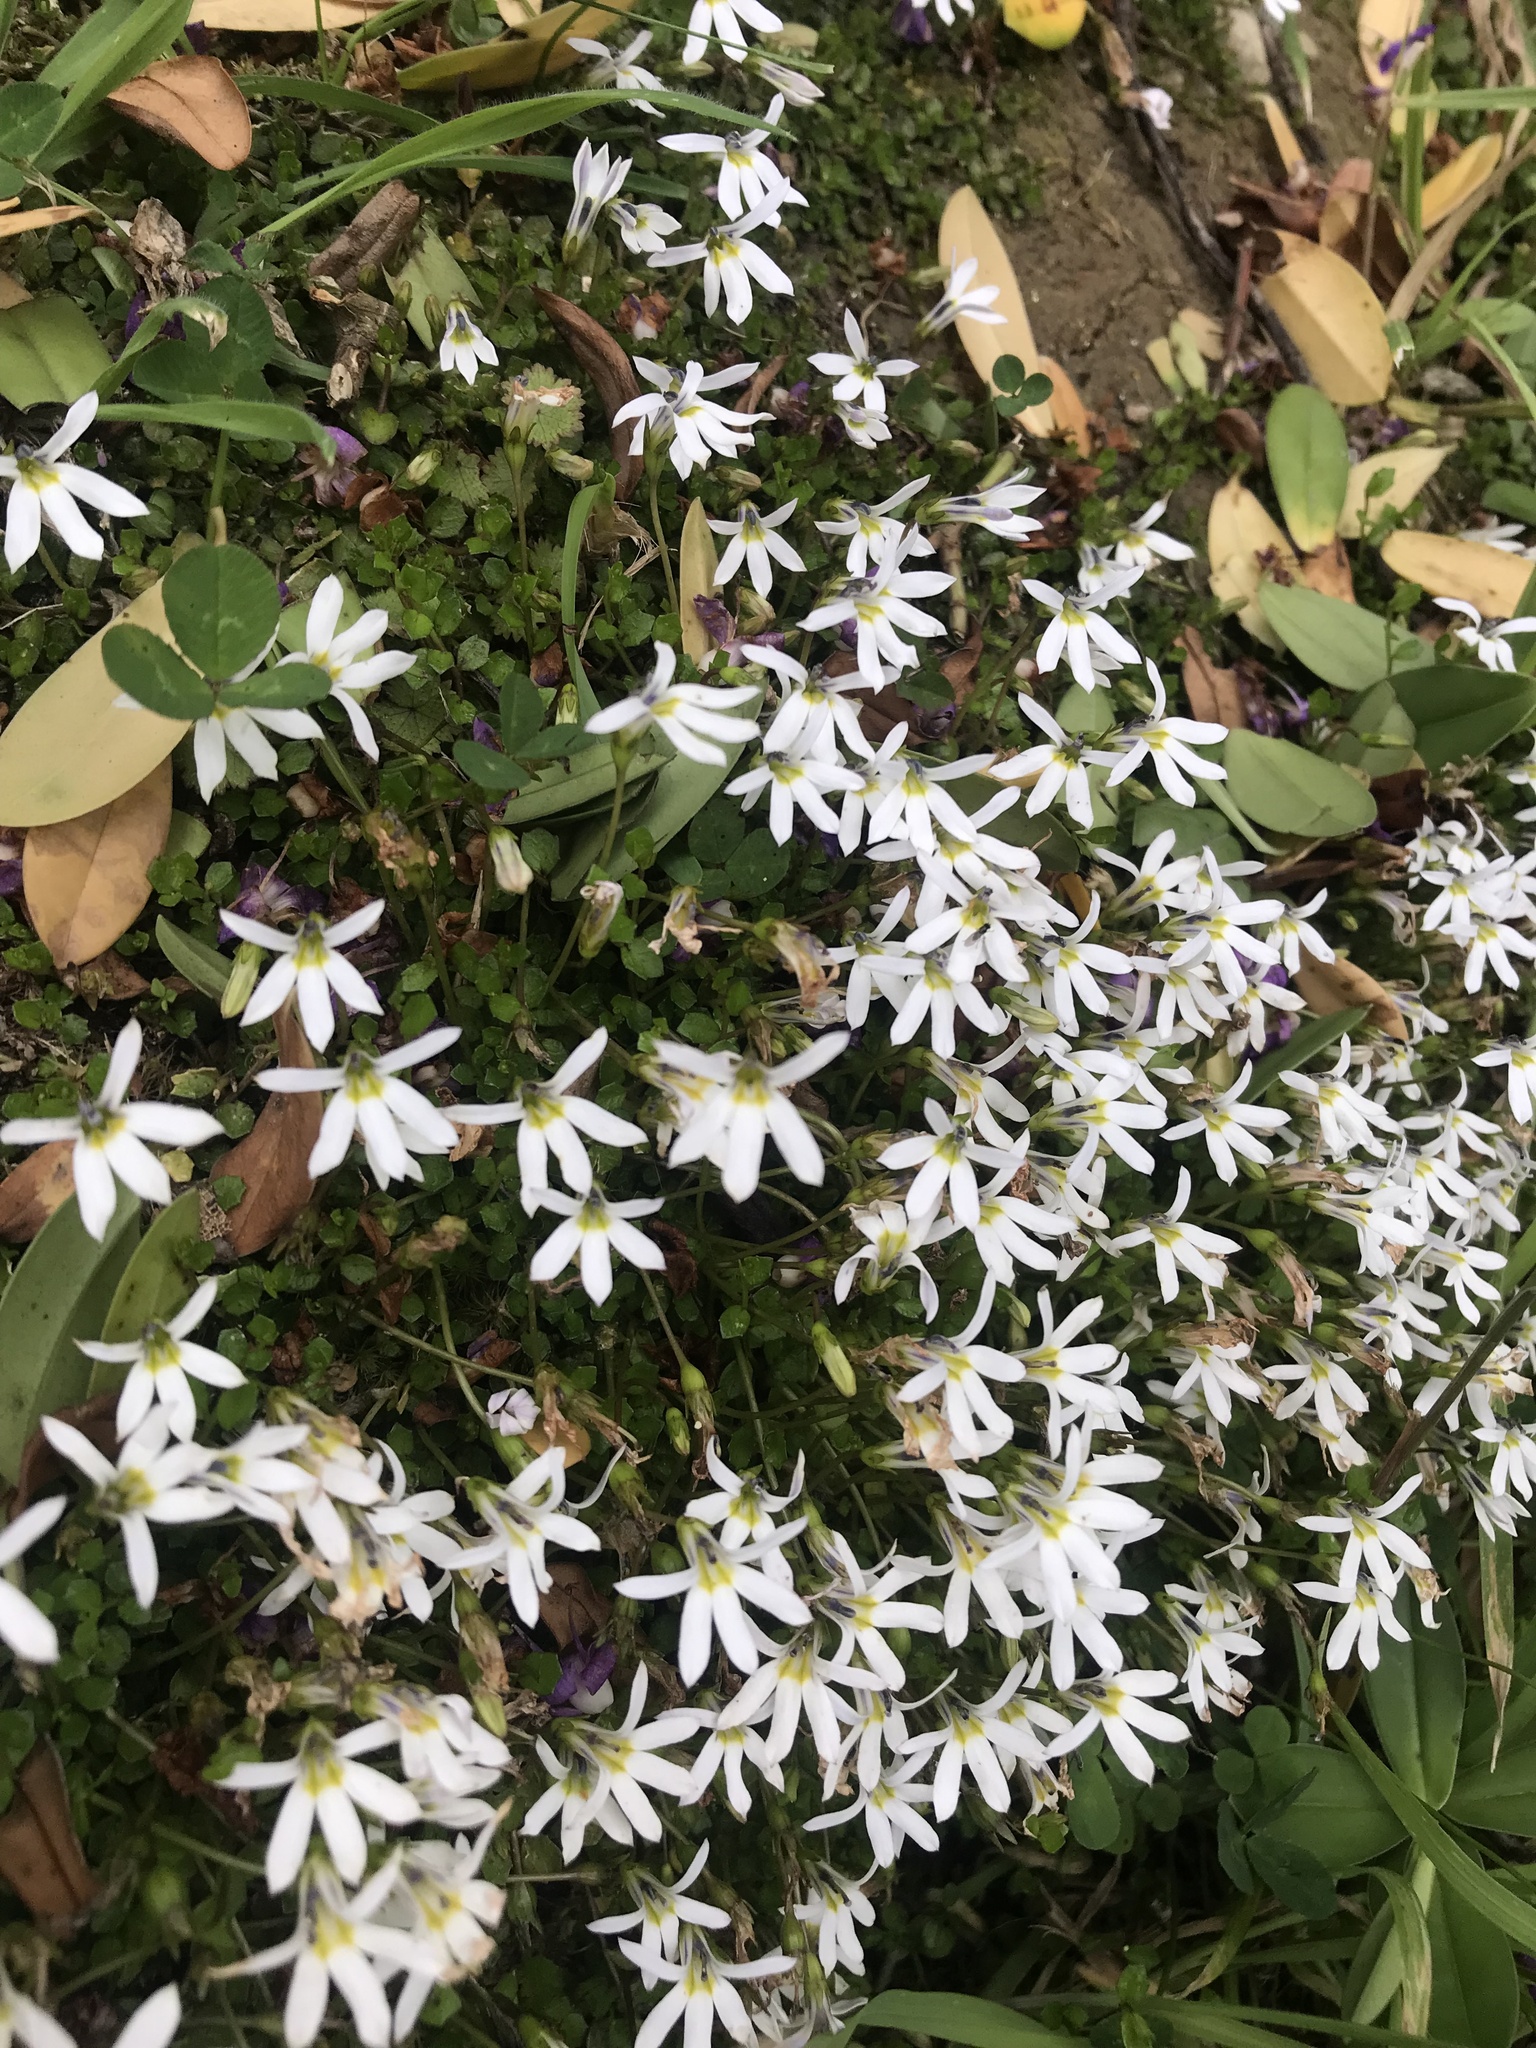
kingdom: Plantae
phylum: Tracheophyta
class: Magnoliopsida
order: Asterales
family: Campanulaceae
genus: Lobelia
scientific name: Lobelia angulata
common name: Lawn lobelia
